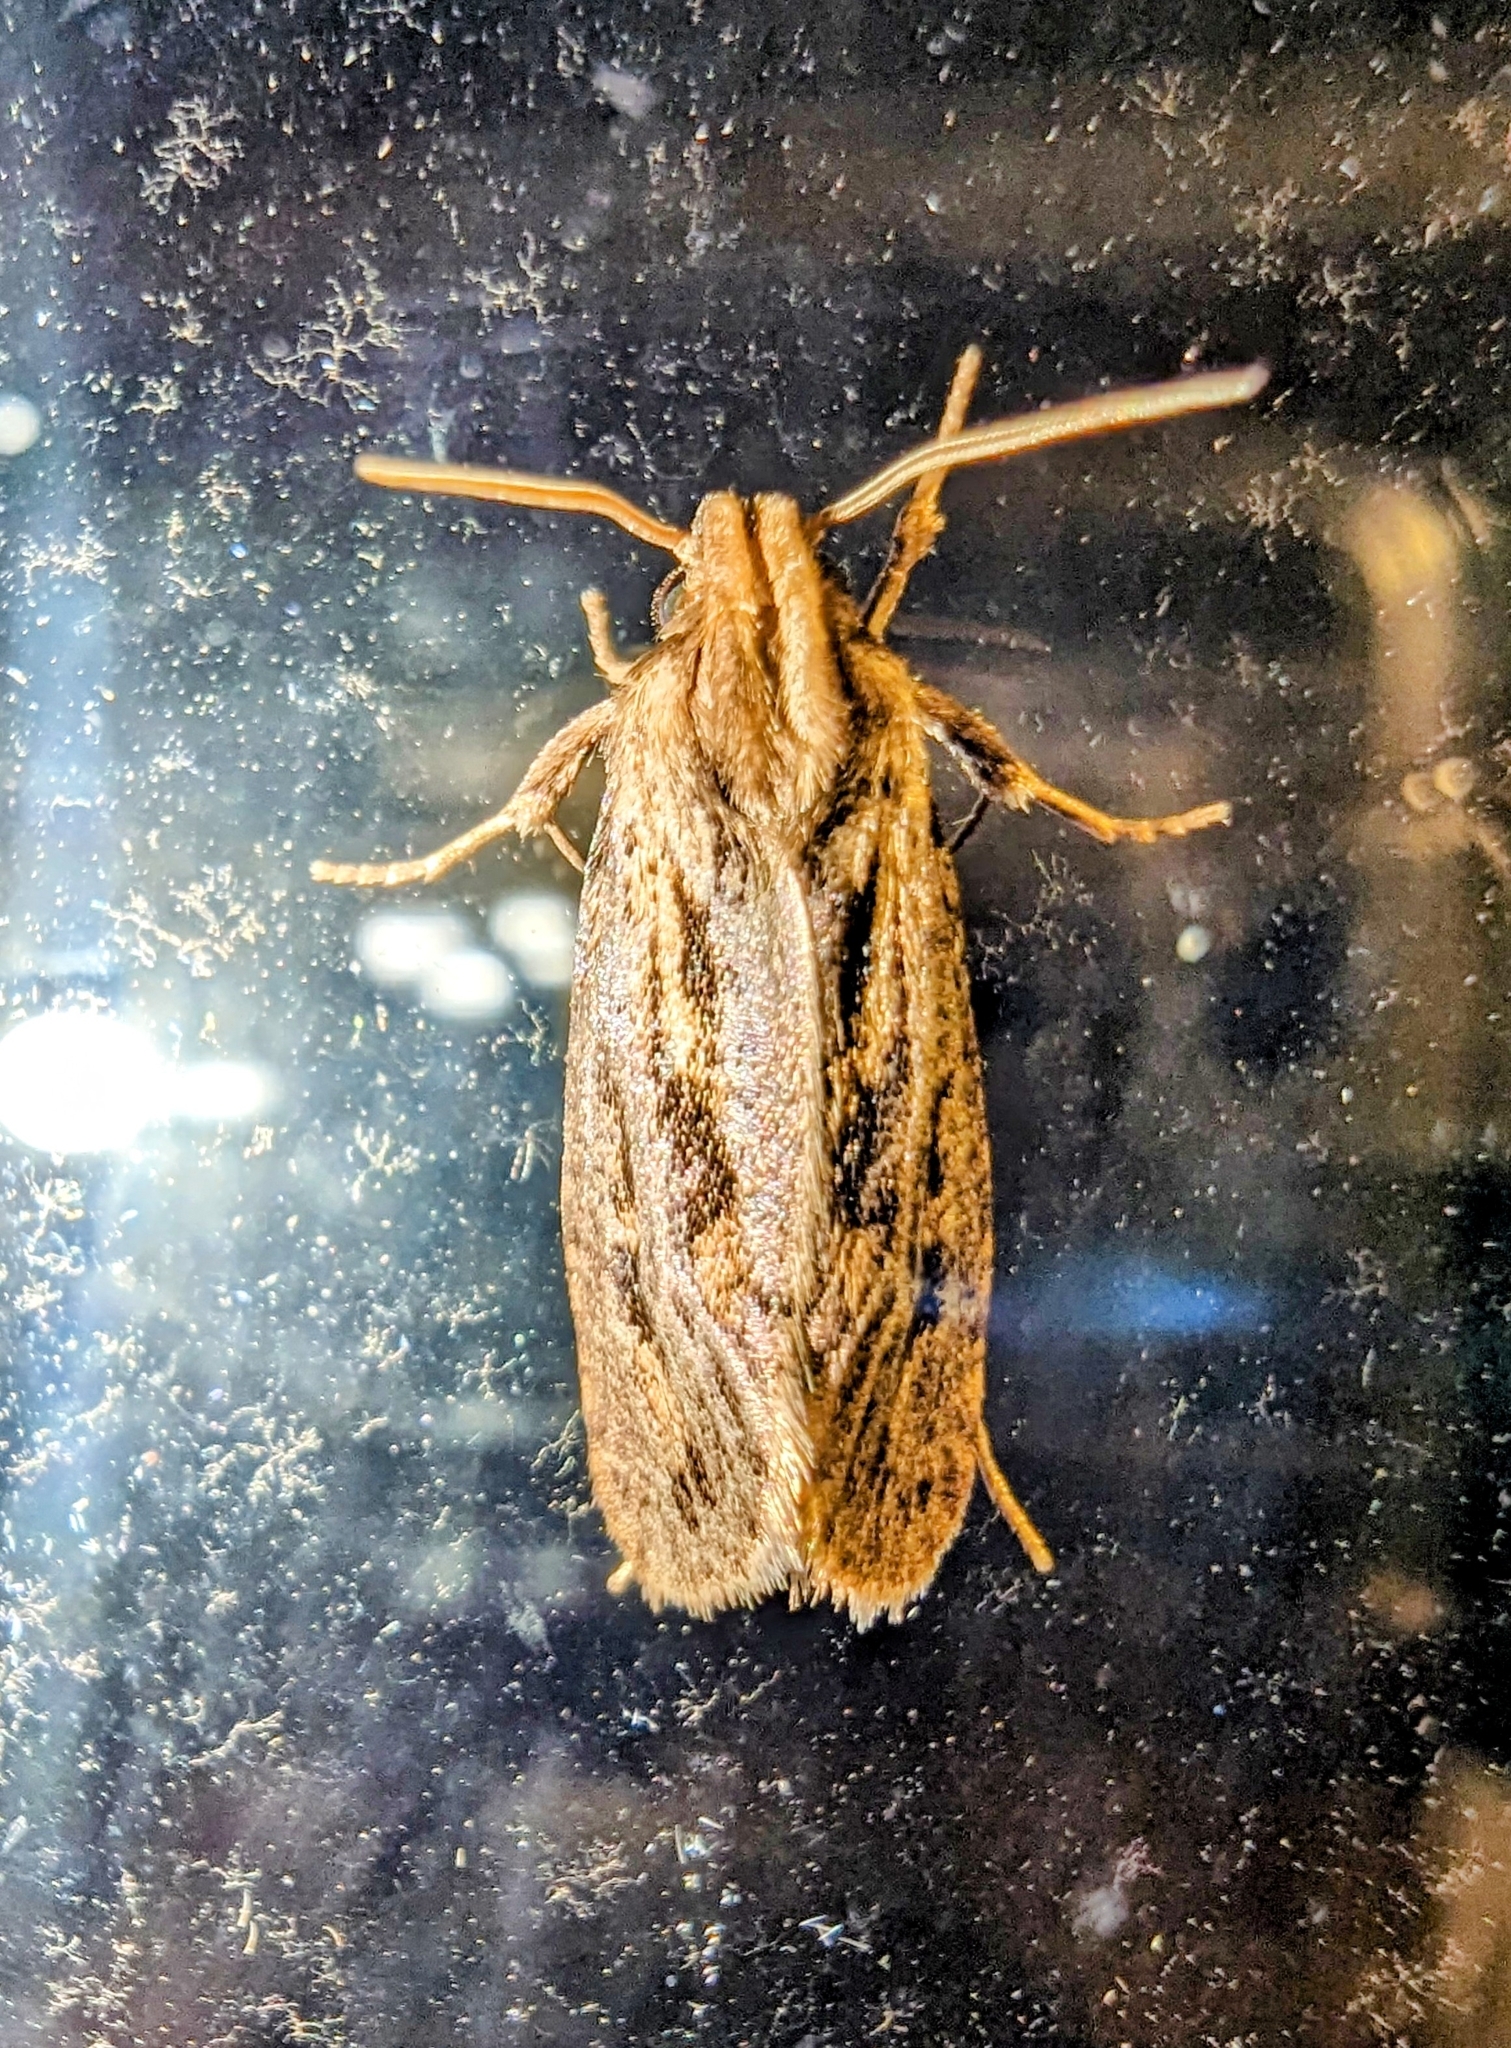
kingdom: Animalia
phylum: Arthropoda
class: Insecta
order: Lepidoptera
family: Tineidae
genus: Acrolophus
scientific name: Acrolophus popeanella
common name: Clemens' grass tubeworm moth
